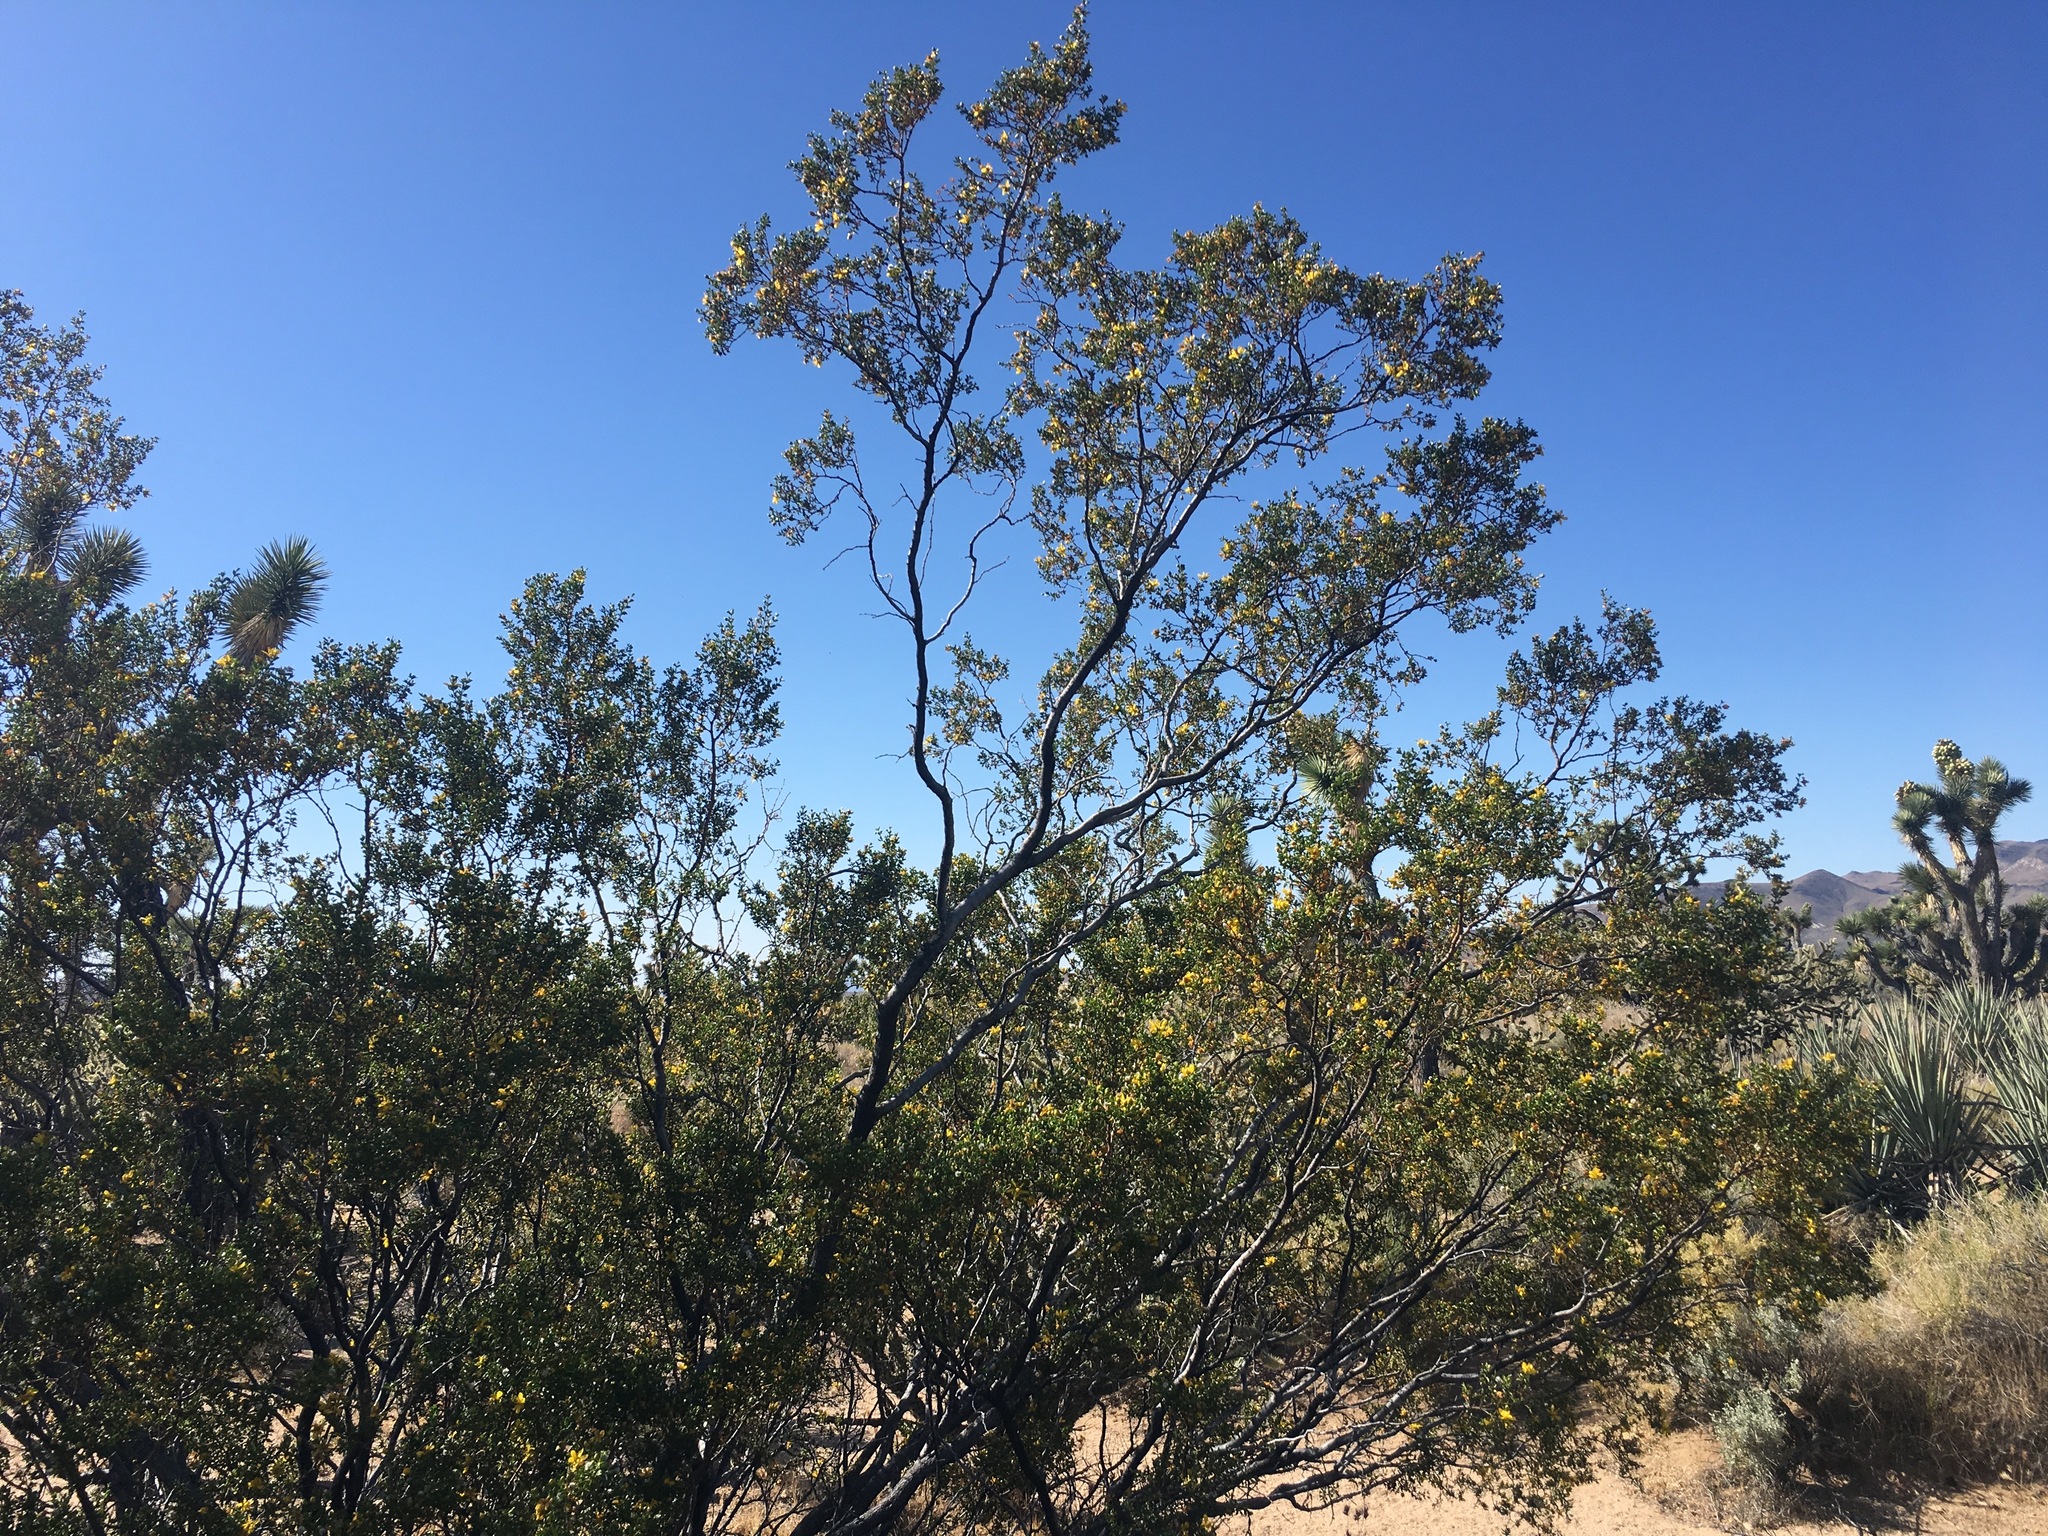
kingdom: Plantae
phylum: Tracheophyta
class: Magnoliopsida
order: Zygophyllales
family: Zygophyllaceae
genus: Larrea
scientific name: Larrea tridentata
